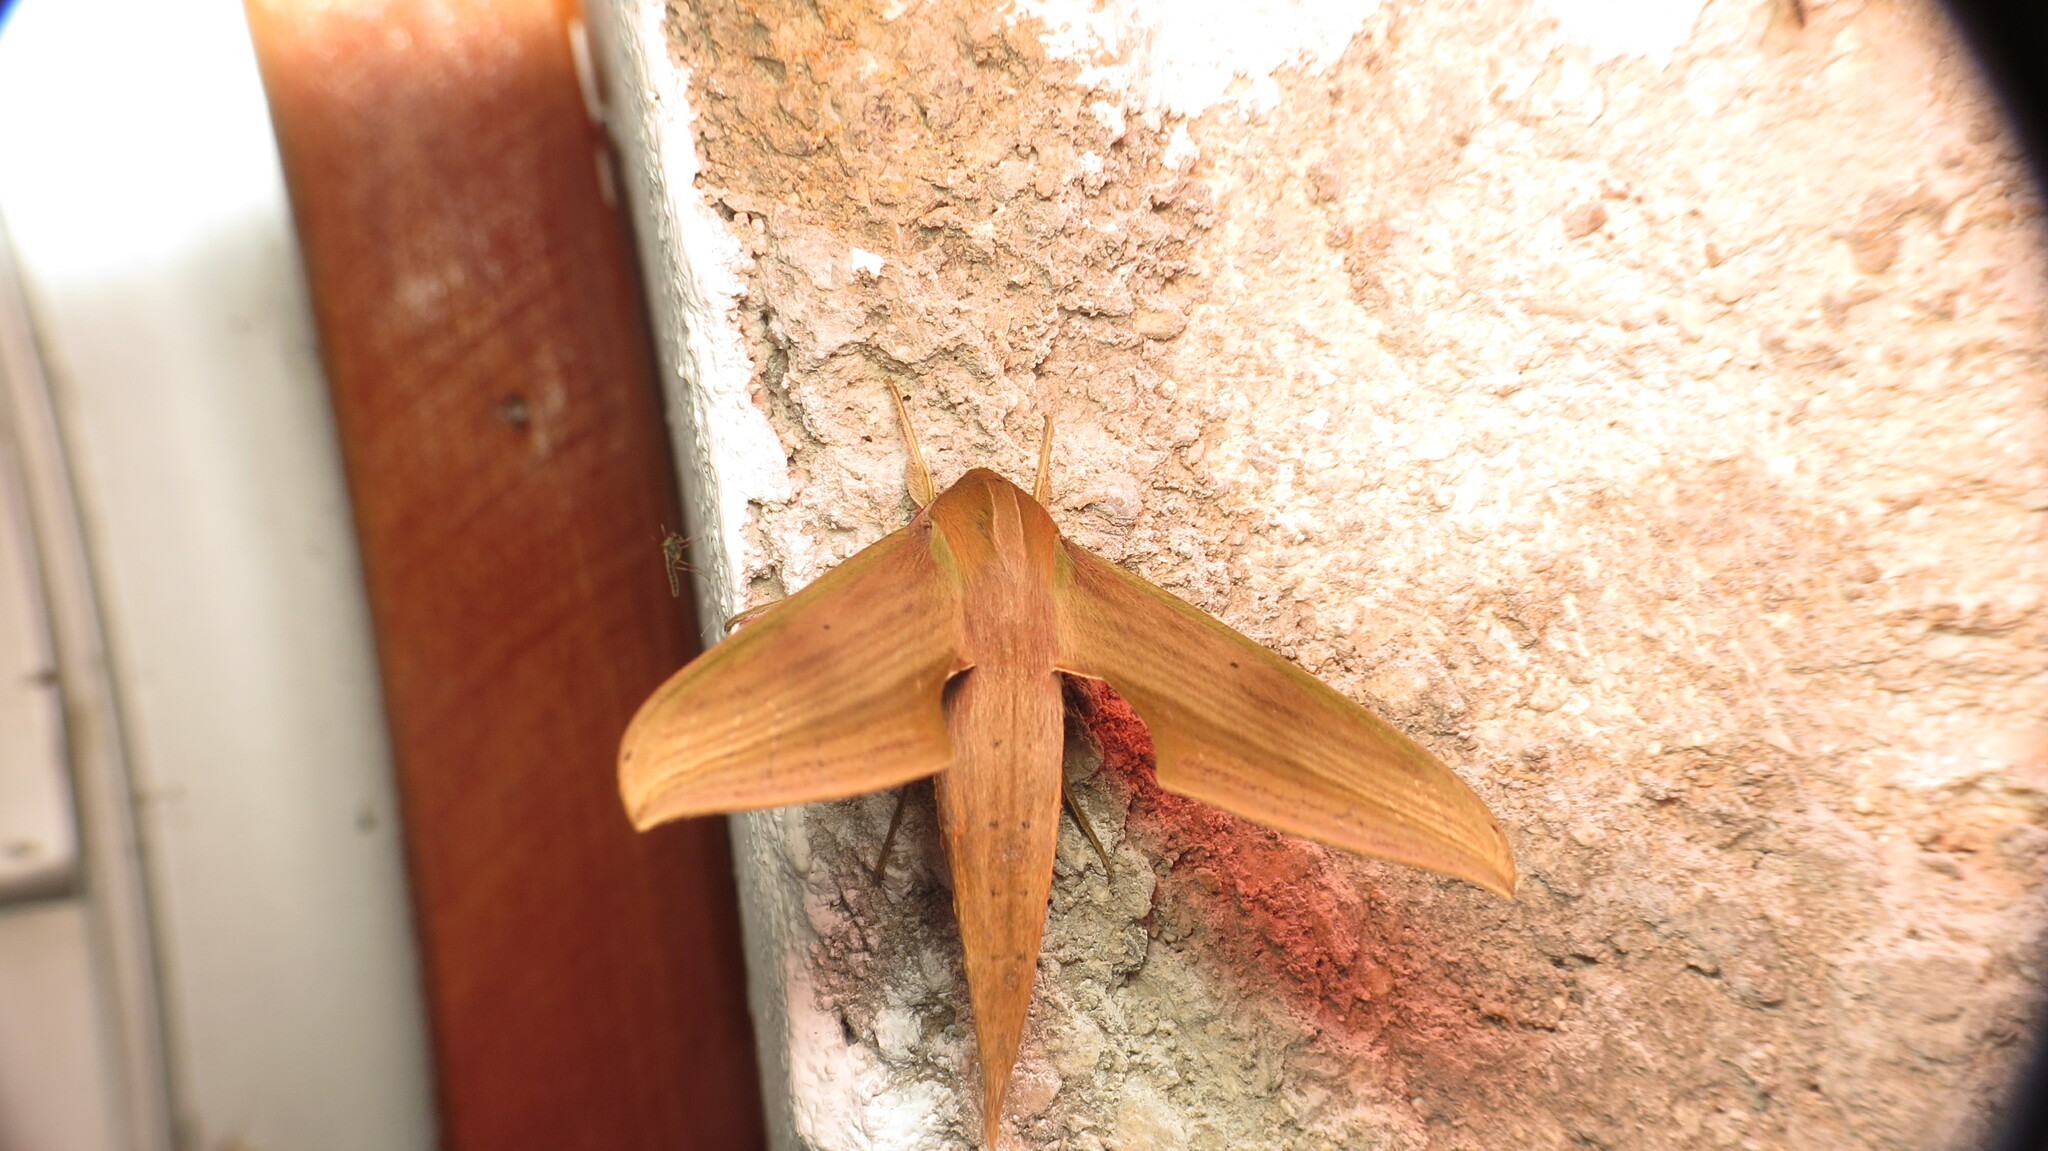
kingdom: Animalia
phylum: Arthropoda
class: Insecta
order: Lepidoptera
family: Sphingidae
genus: Xylophanes
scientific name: Xylophanes libya
